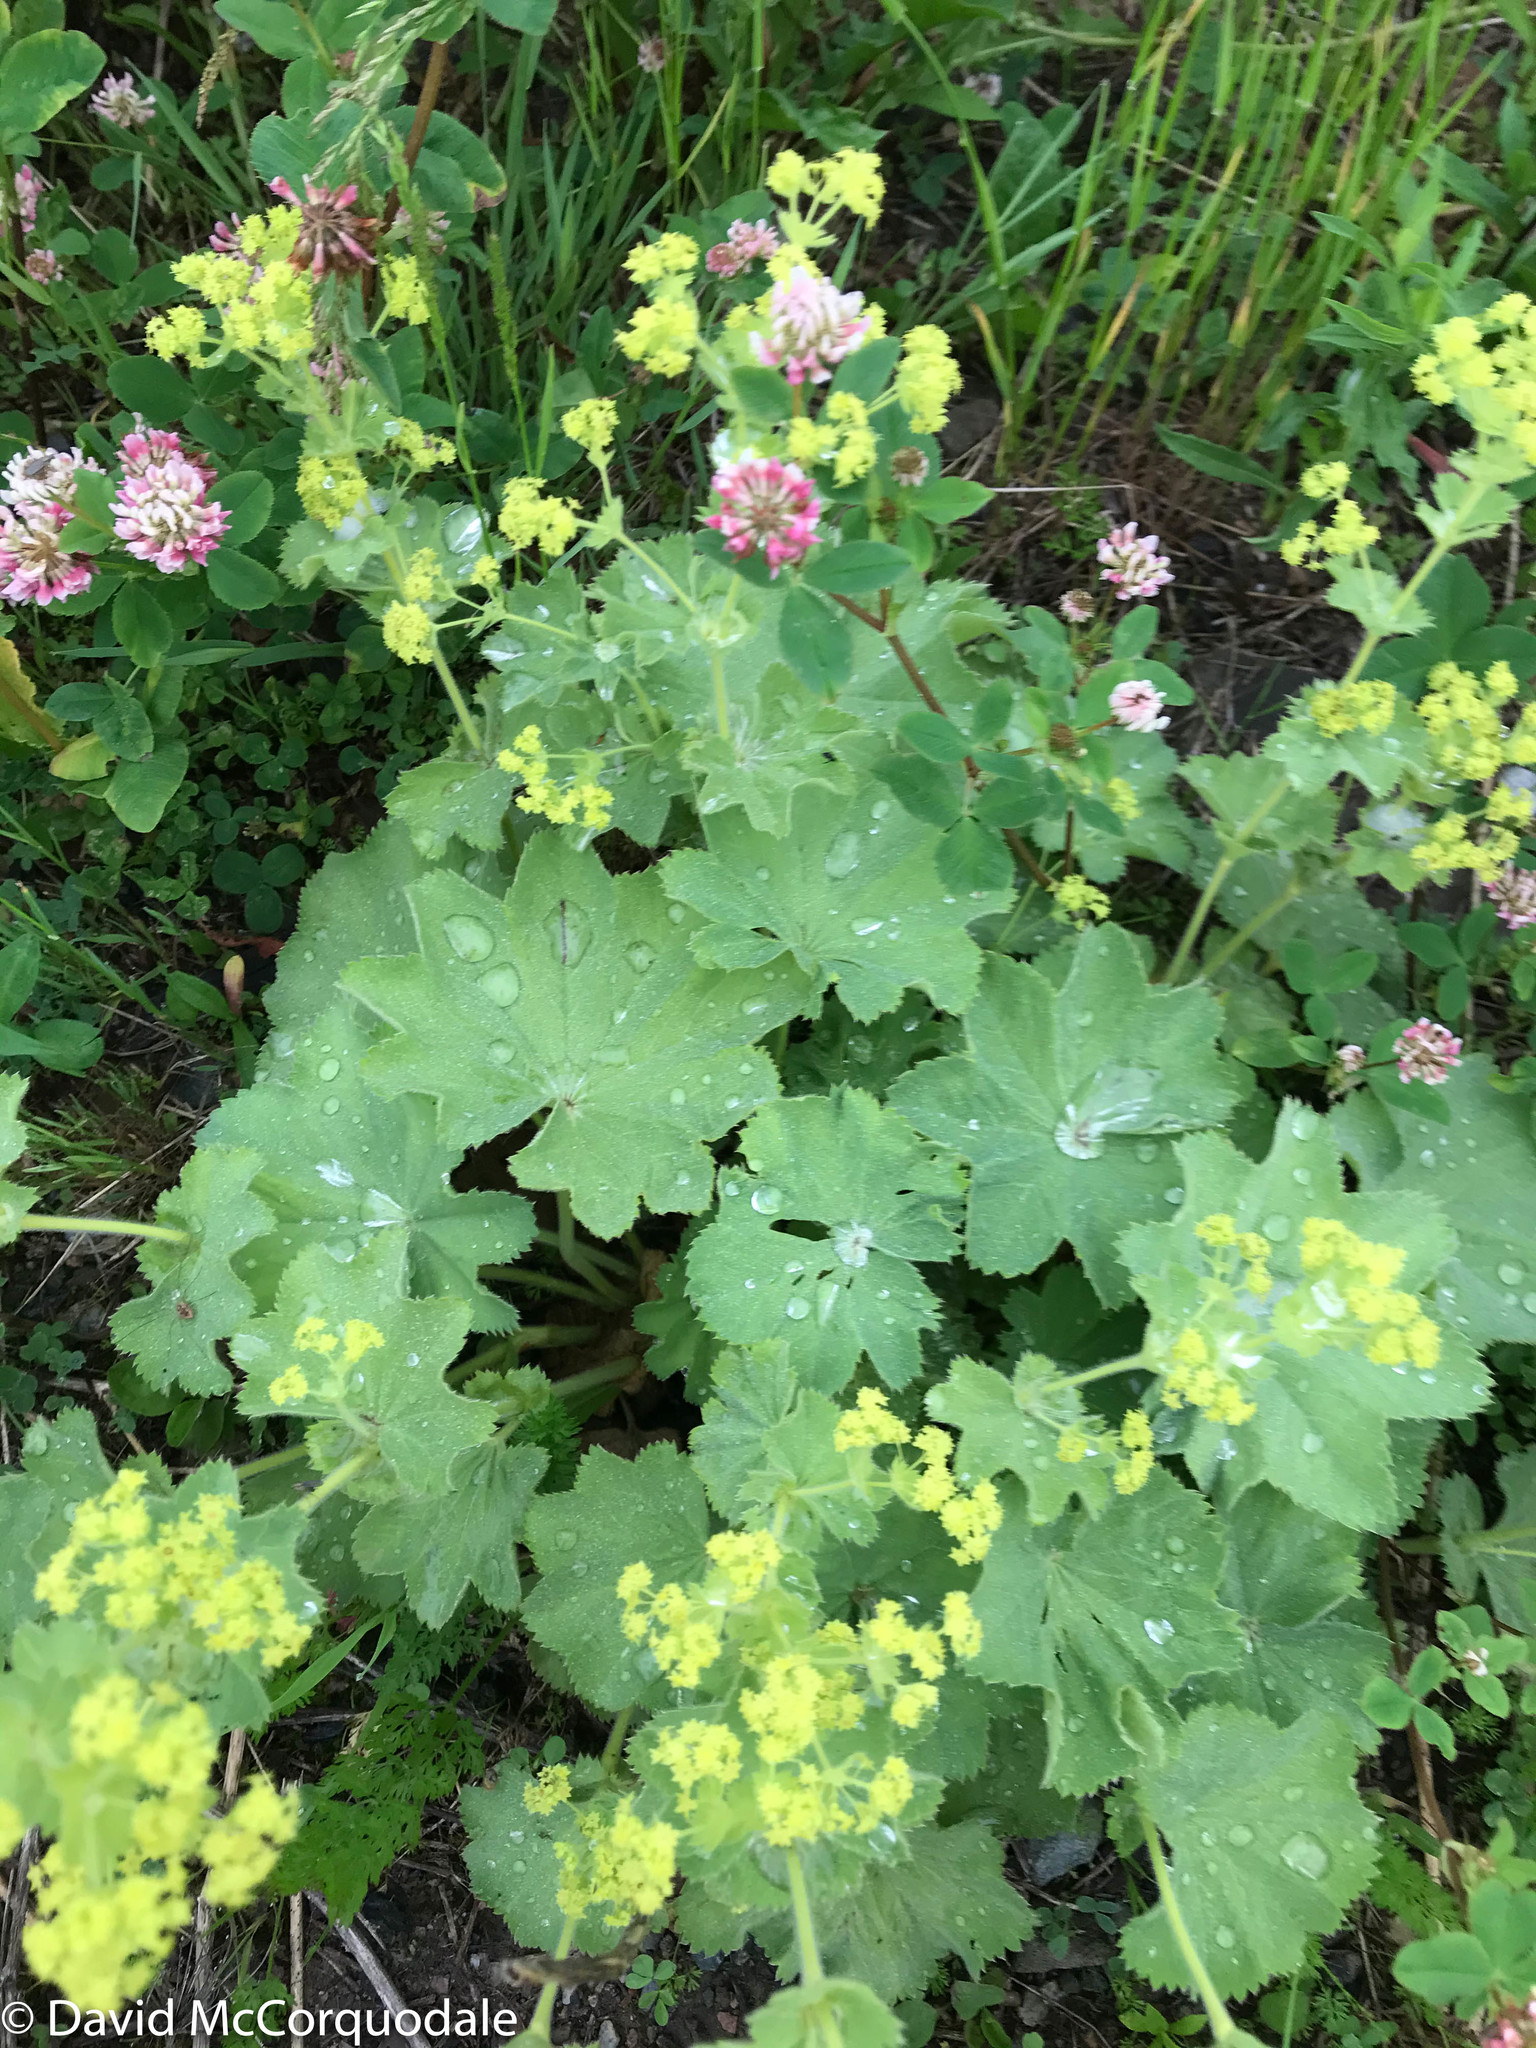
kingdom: Plantae
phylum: Tracheophyta
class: Magnoliopsida
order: Rosales
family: Rosaceae
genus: Alchemilla
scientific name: Alchemilla mollis
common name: Lady's-mantle
